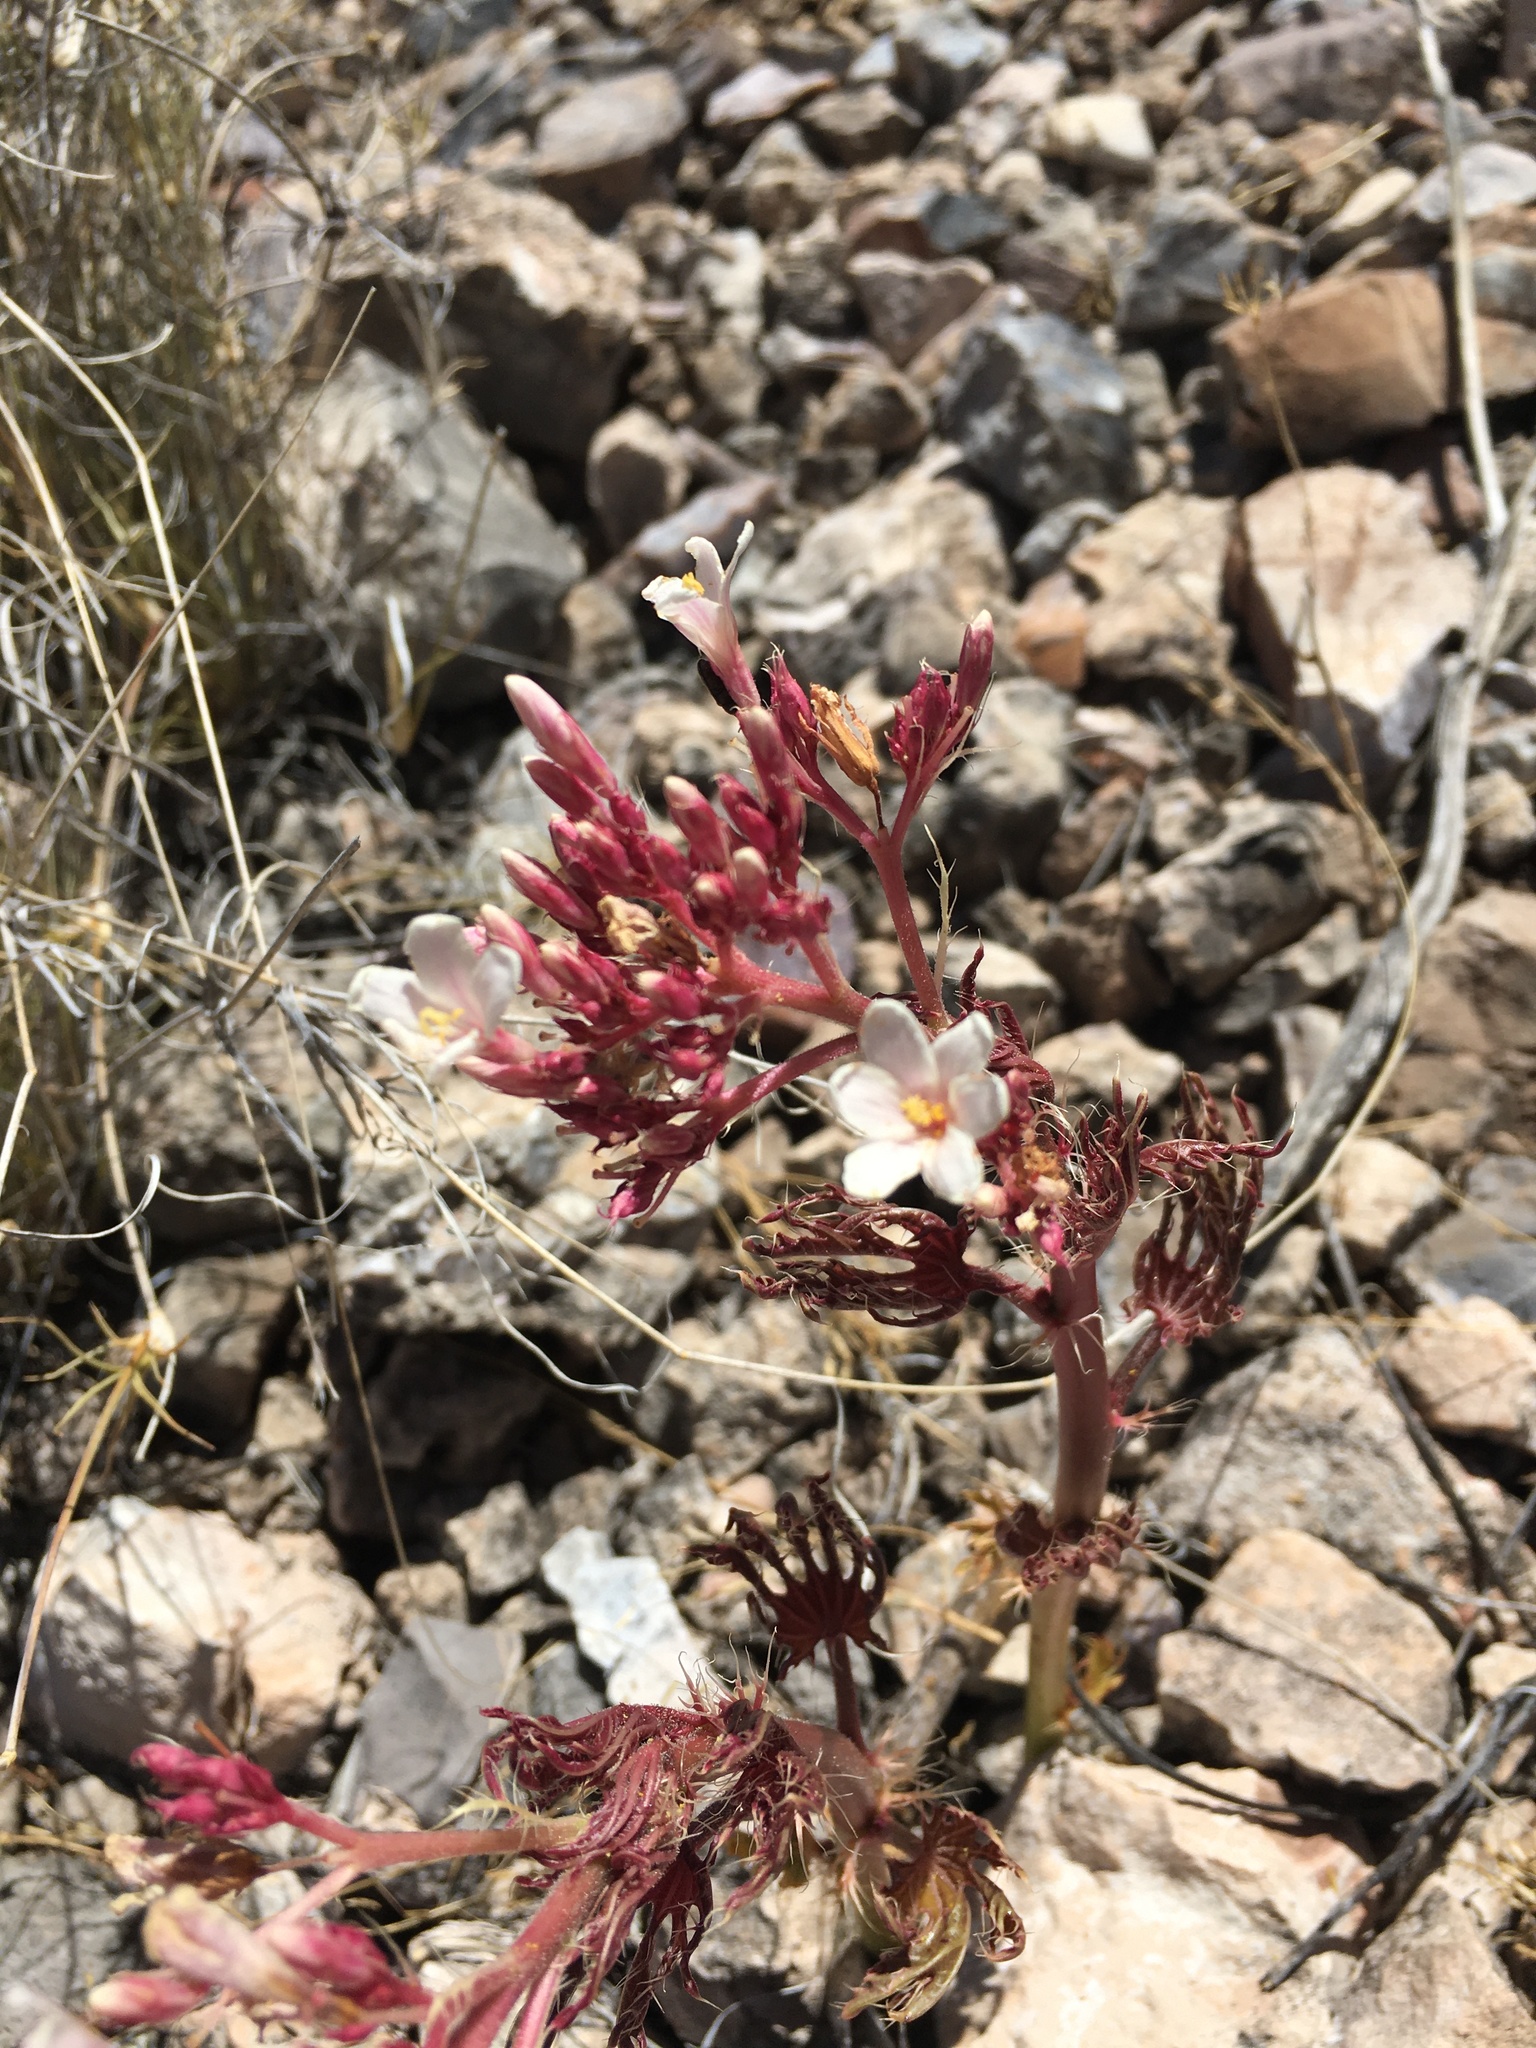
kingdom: Plantae
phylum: Tracheophyta
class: Magnoliopsida
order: Malpighiales
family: Euphorbiaceae
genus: Jatropha
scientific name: Jatropha macrorhiza
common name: Ragged nettlespurge
